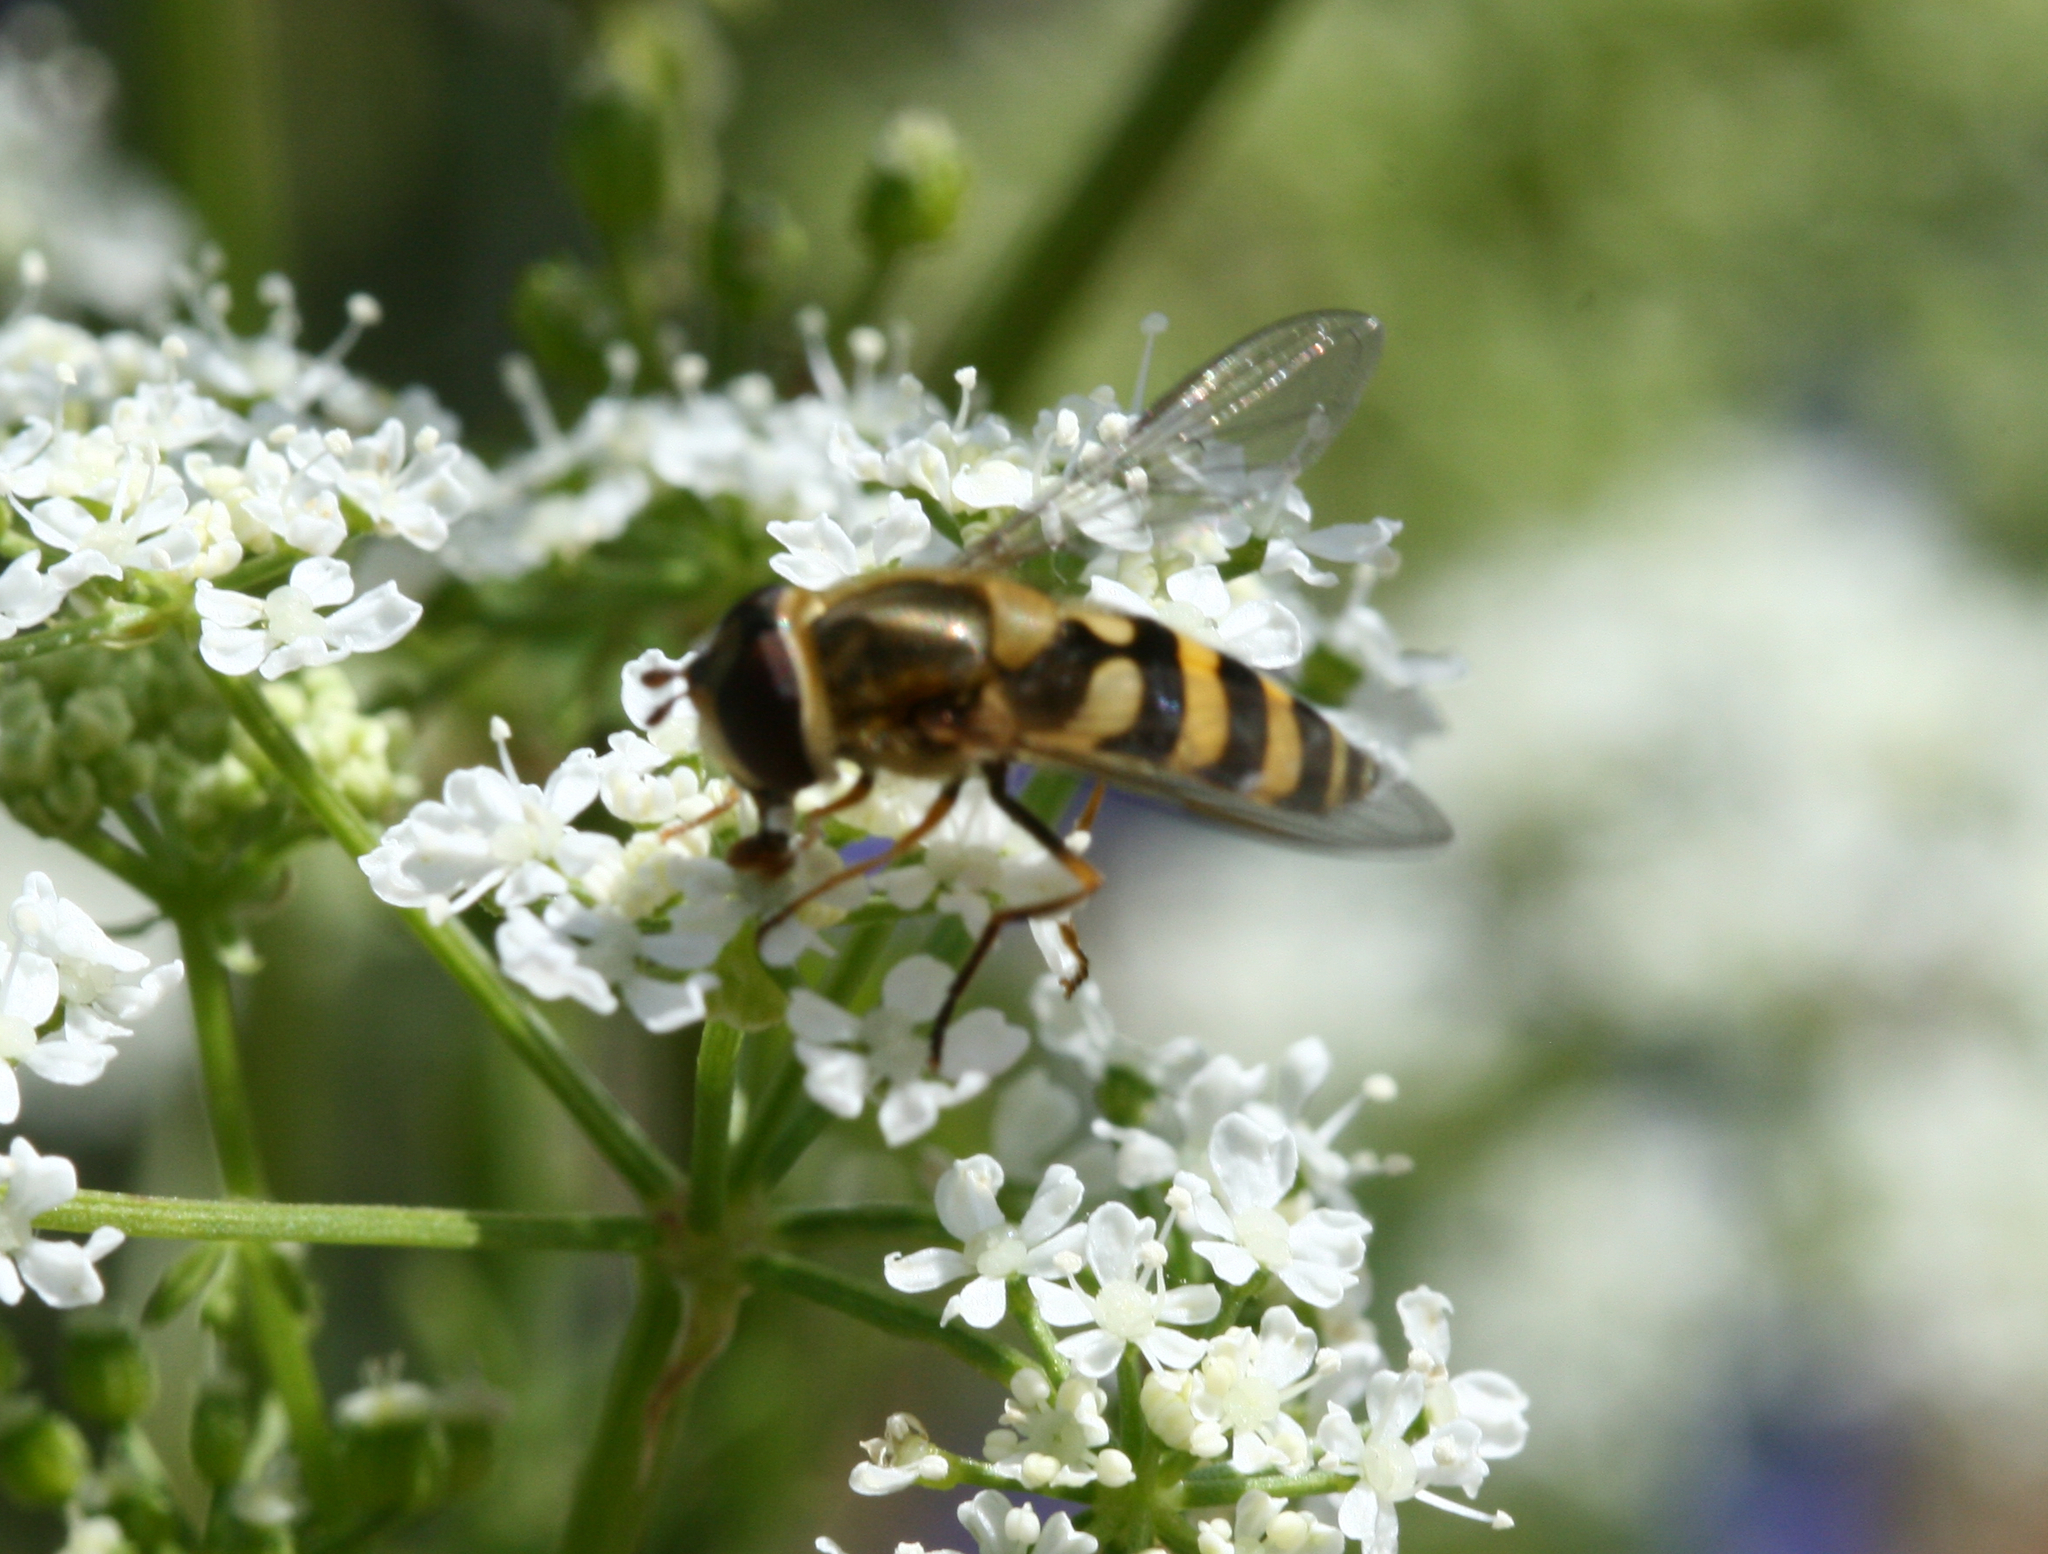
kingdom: Animalia
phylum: Arthropoda
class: Insecta
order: Diptera
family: Syrphidae
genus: Syrphus
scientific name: Syrphus
